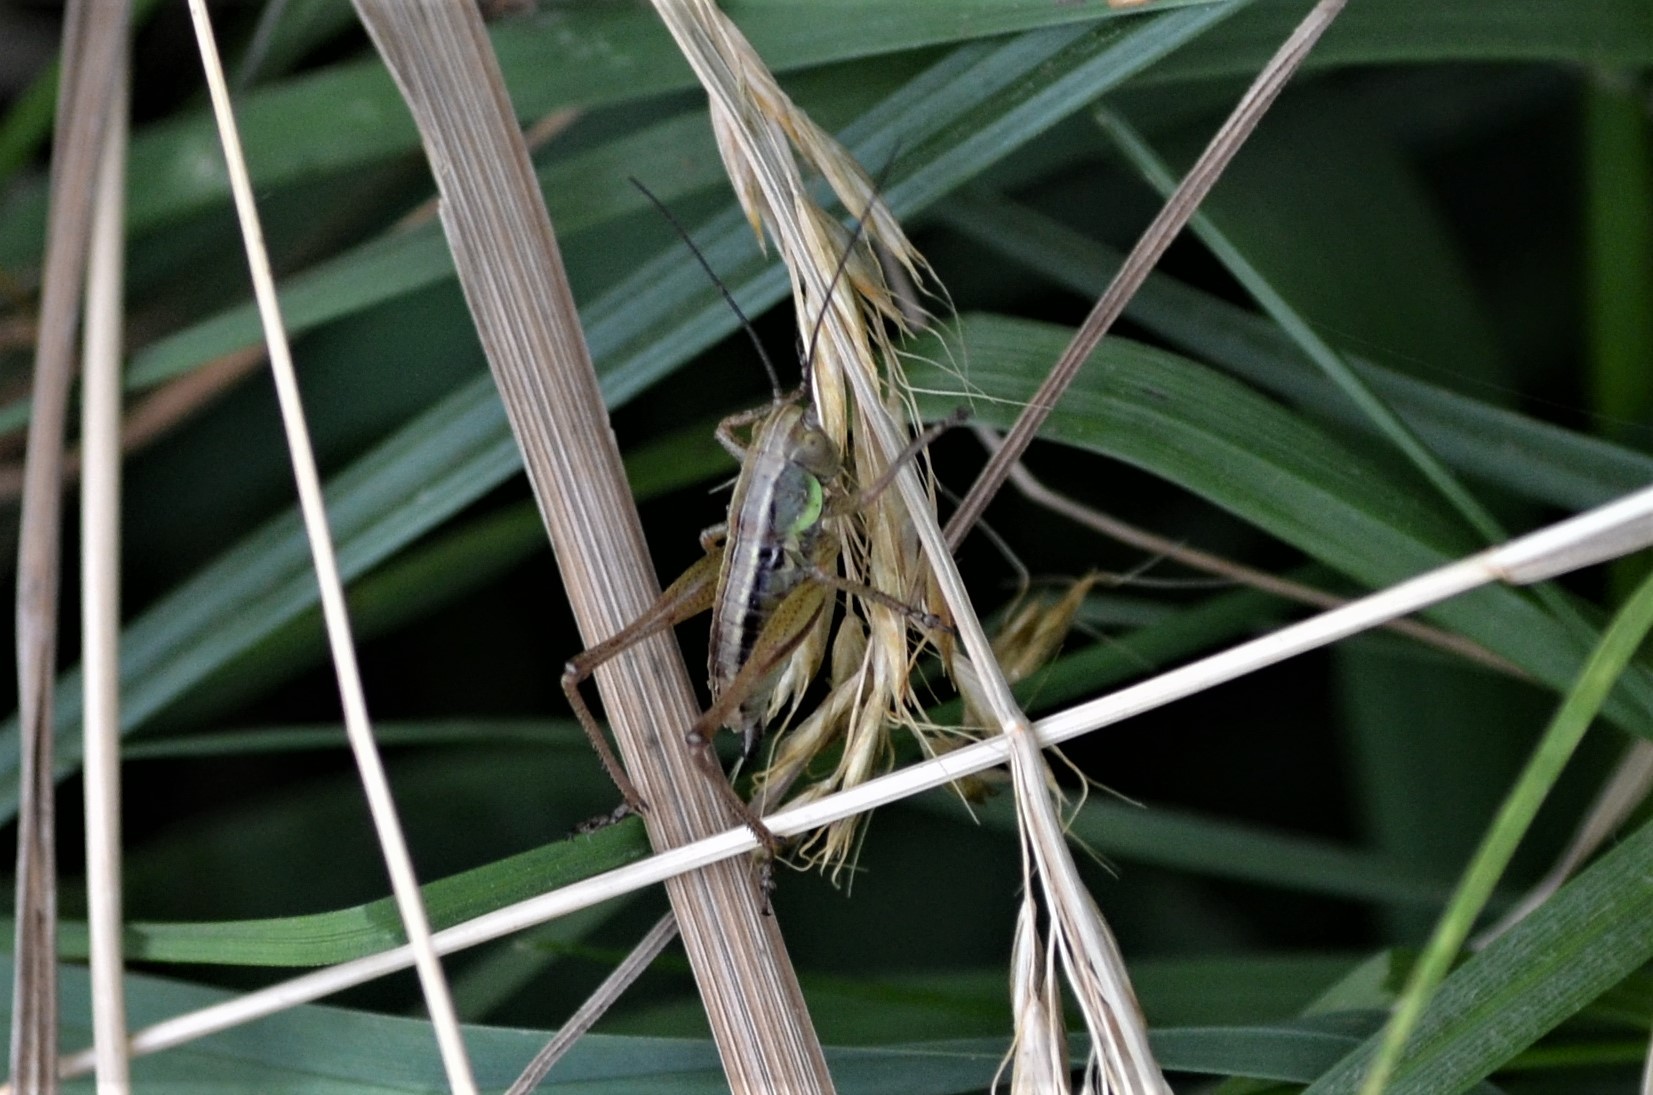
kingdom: Animalia
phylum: Arthropoda
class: Insecta
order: Orthoptera
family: Tettigoniidae
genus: Roeseliana
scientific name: Roeseliana roeselii
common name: Roesel's bush cricket
